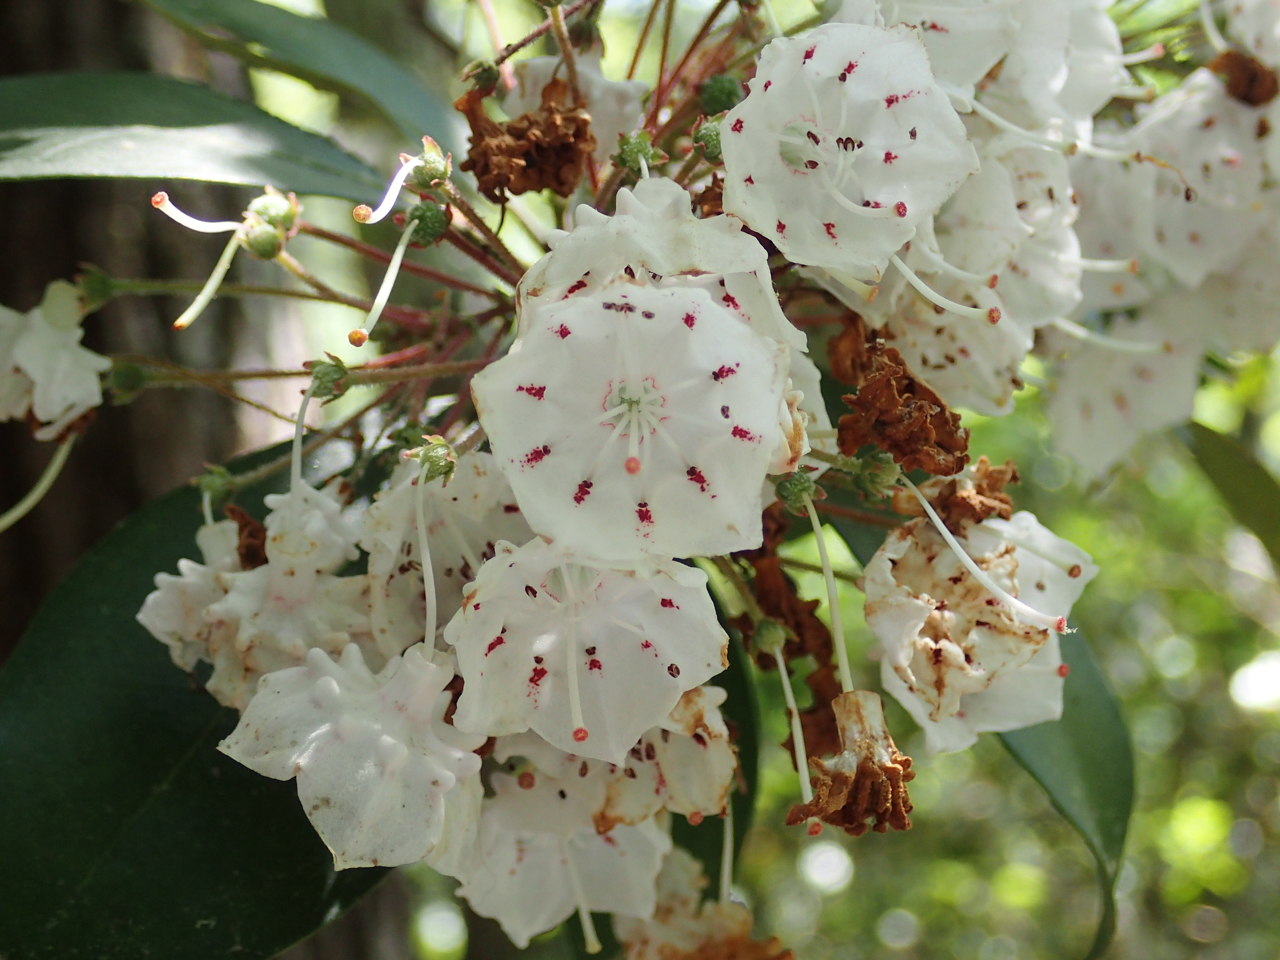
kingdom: Plantae
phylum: Tracheophyta
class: Magnoliopsida
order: Ericales
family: Ericaceae
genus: Kalmia
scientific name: Kalmia latifolia
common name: Mountain-laurel
